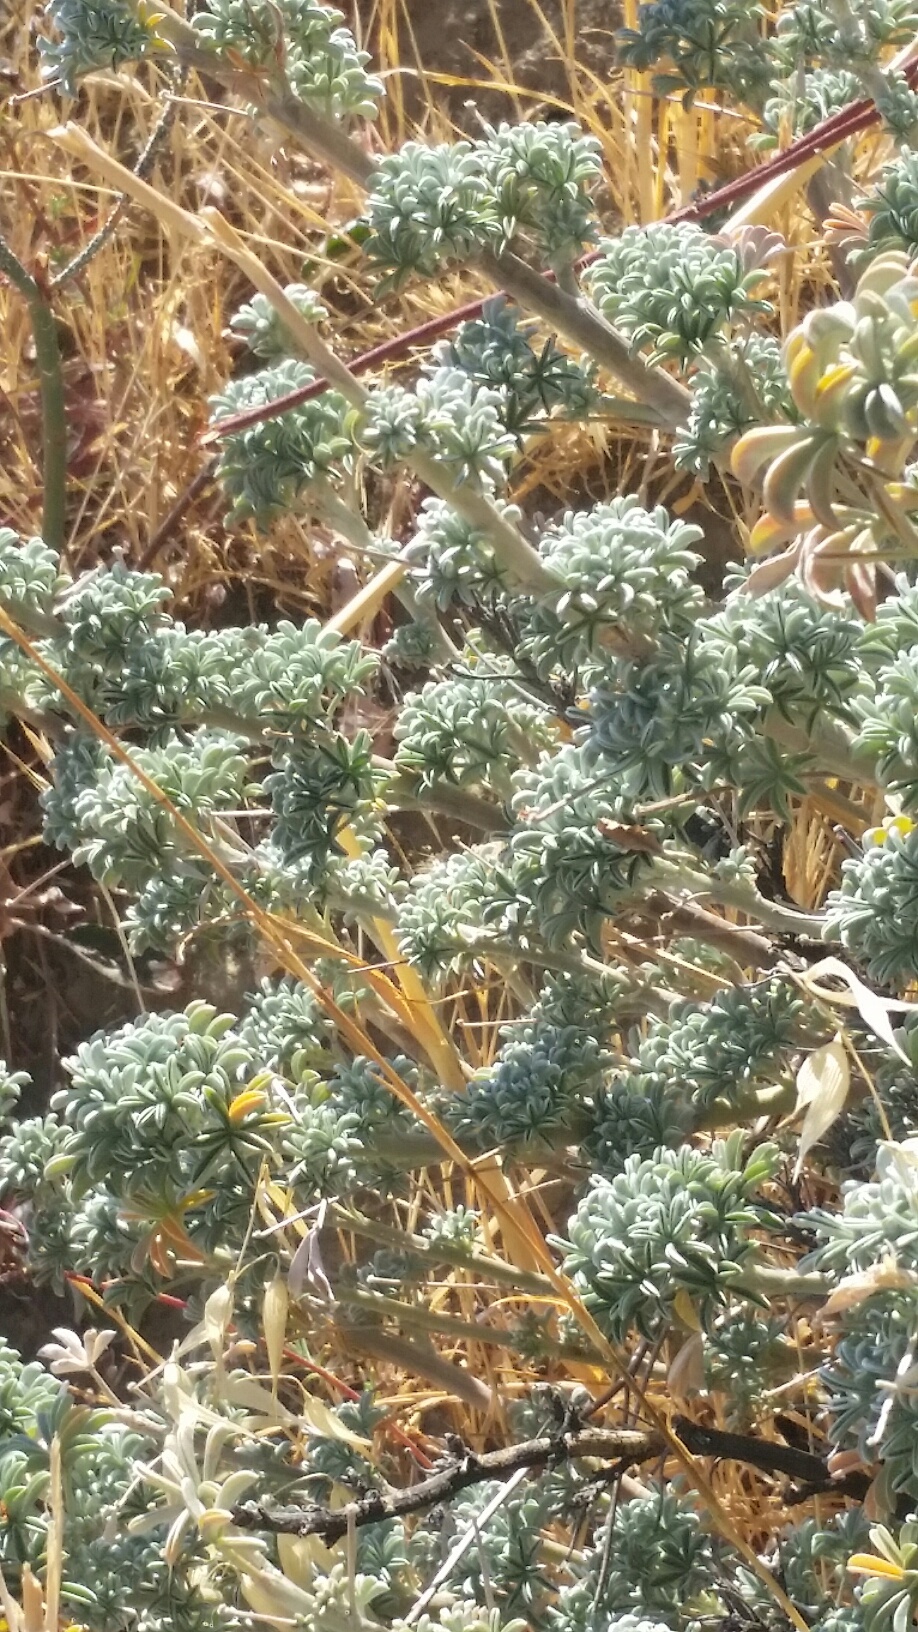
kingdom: Plantae
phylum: Tracheophyta
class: Magnoliopsida
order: Fabales
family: Fabaceae
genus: Lupinus
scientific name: Lupinus albifrons
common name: Foothill lupine
